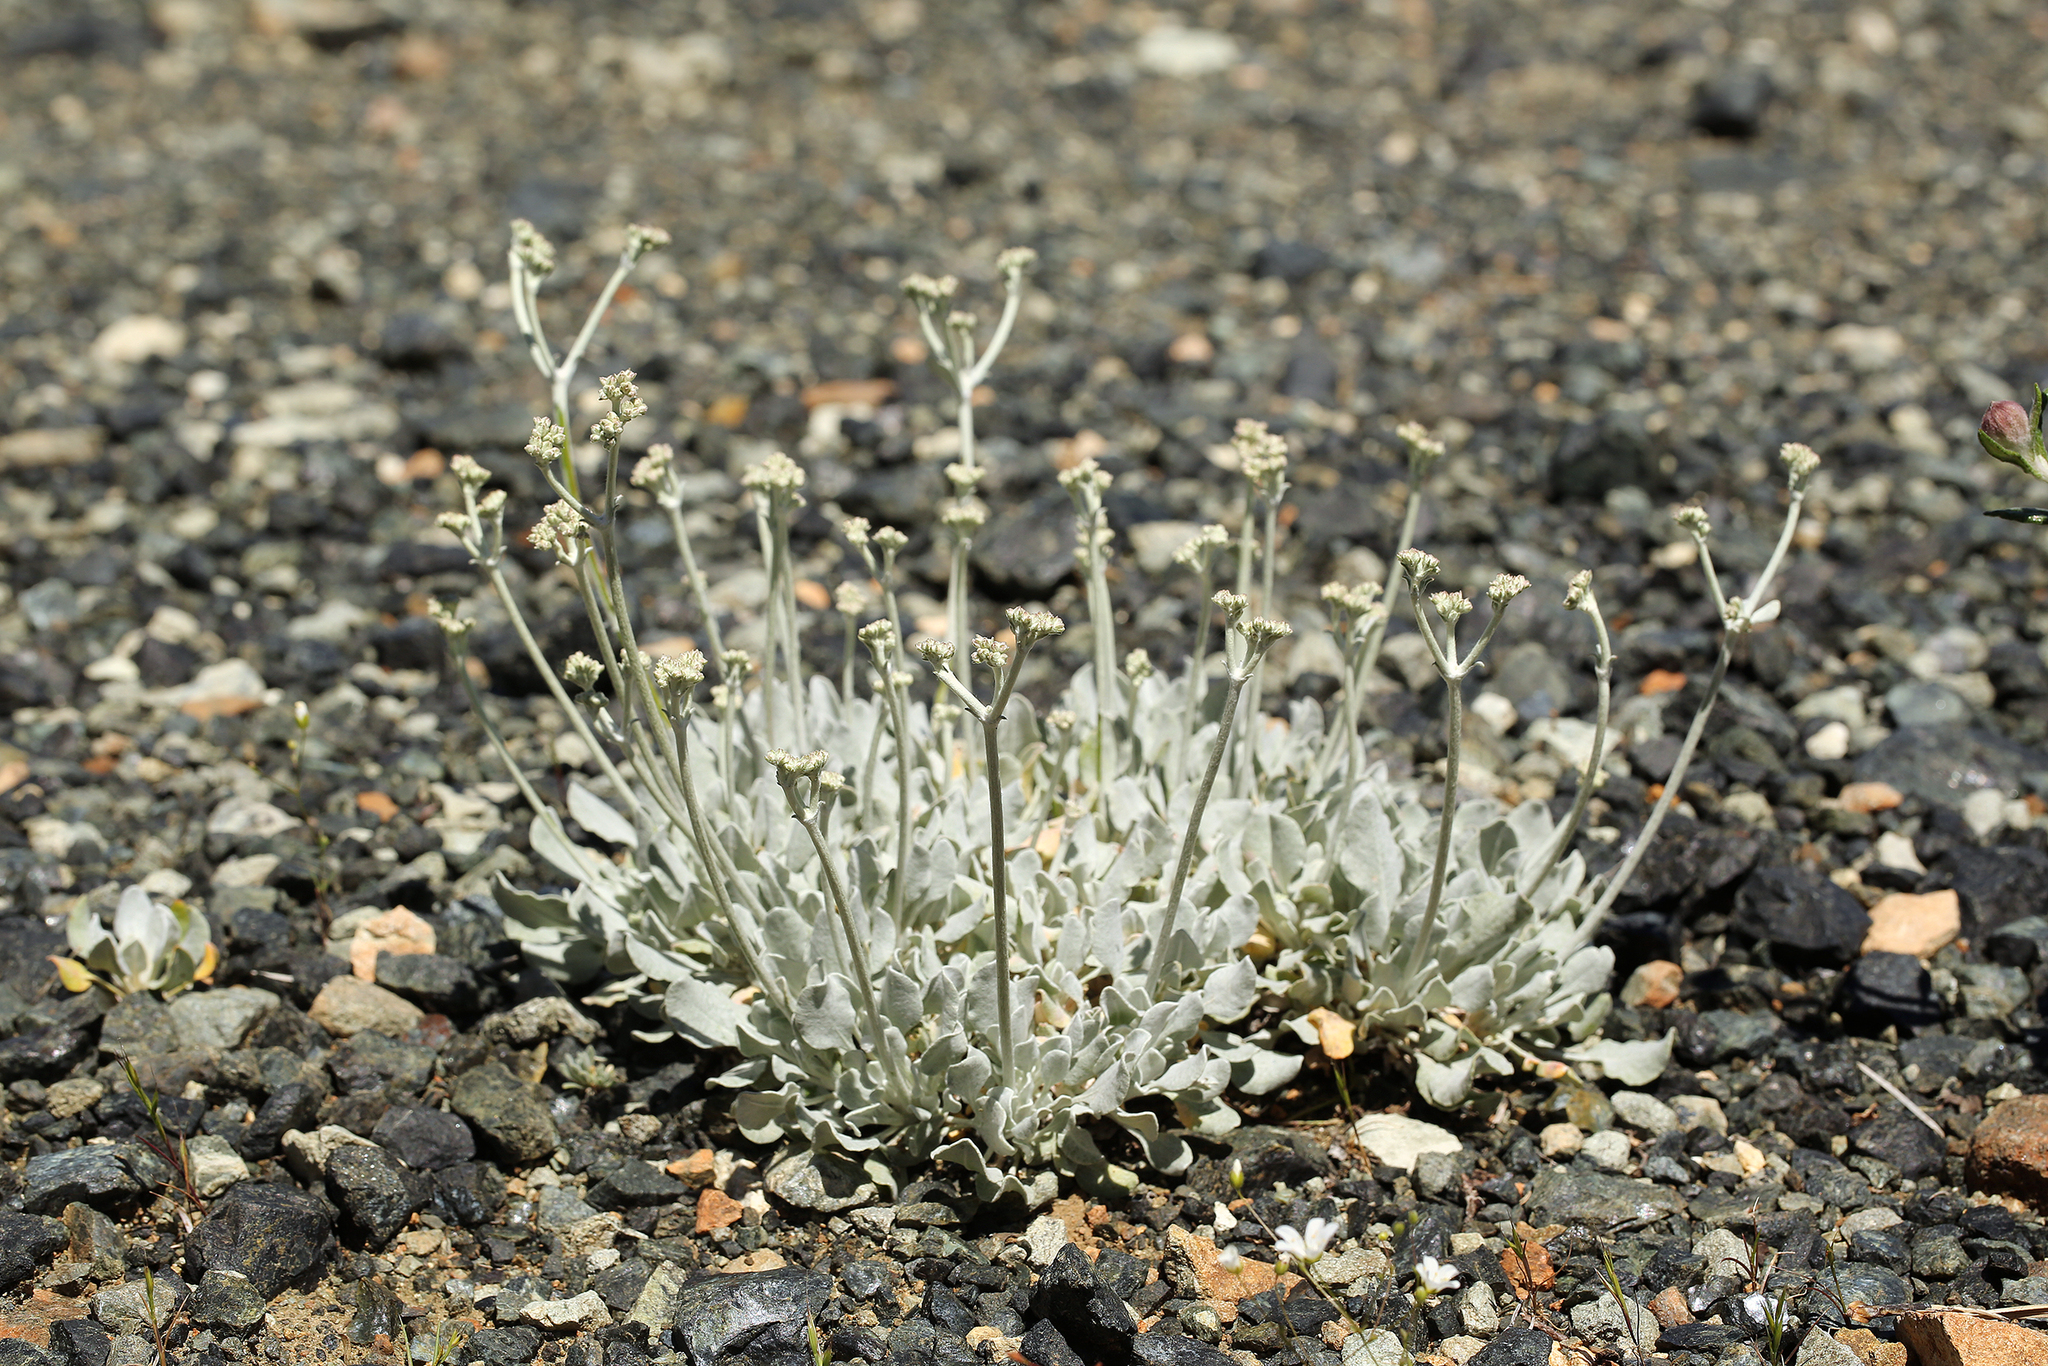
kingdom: Plantae
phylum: Tracheophyta
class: Magnoliopsida
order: Caryophyllales
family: Polygonaceae
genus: Eriogonum
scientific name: Eriogonum strictum
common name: Blue mountain buckwheat
